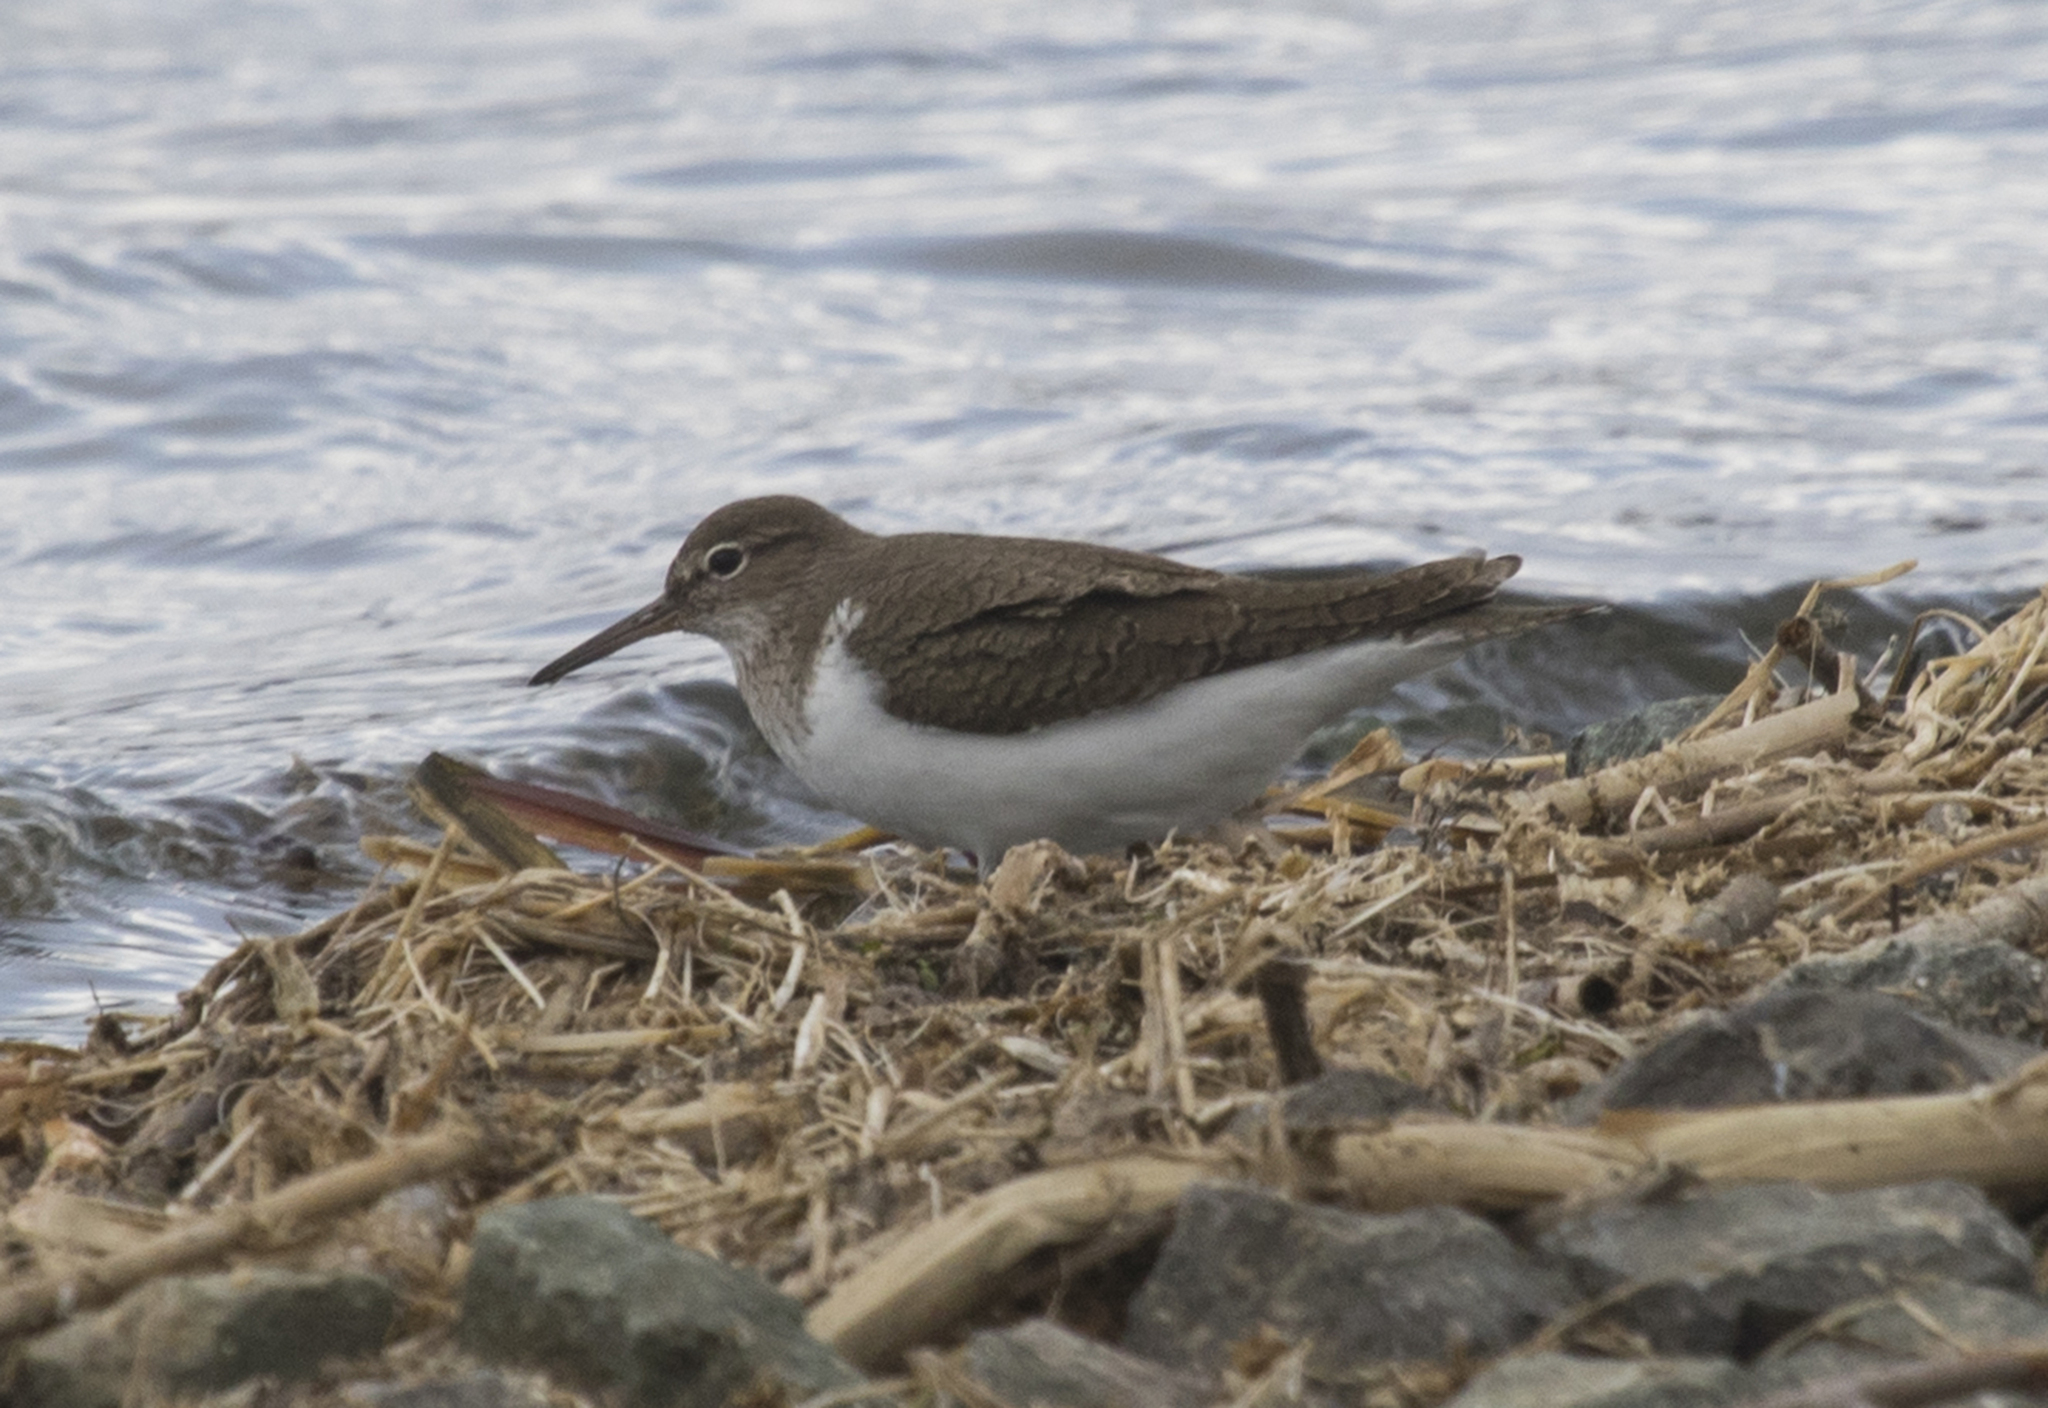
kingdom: Animalia
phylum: Chordata
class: Aves
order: Charadriiformes
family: Scolopacidae
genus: Actitis
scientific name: Actitis hypoleucos
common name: Common sandpiper
